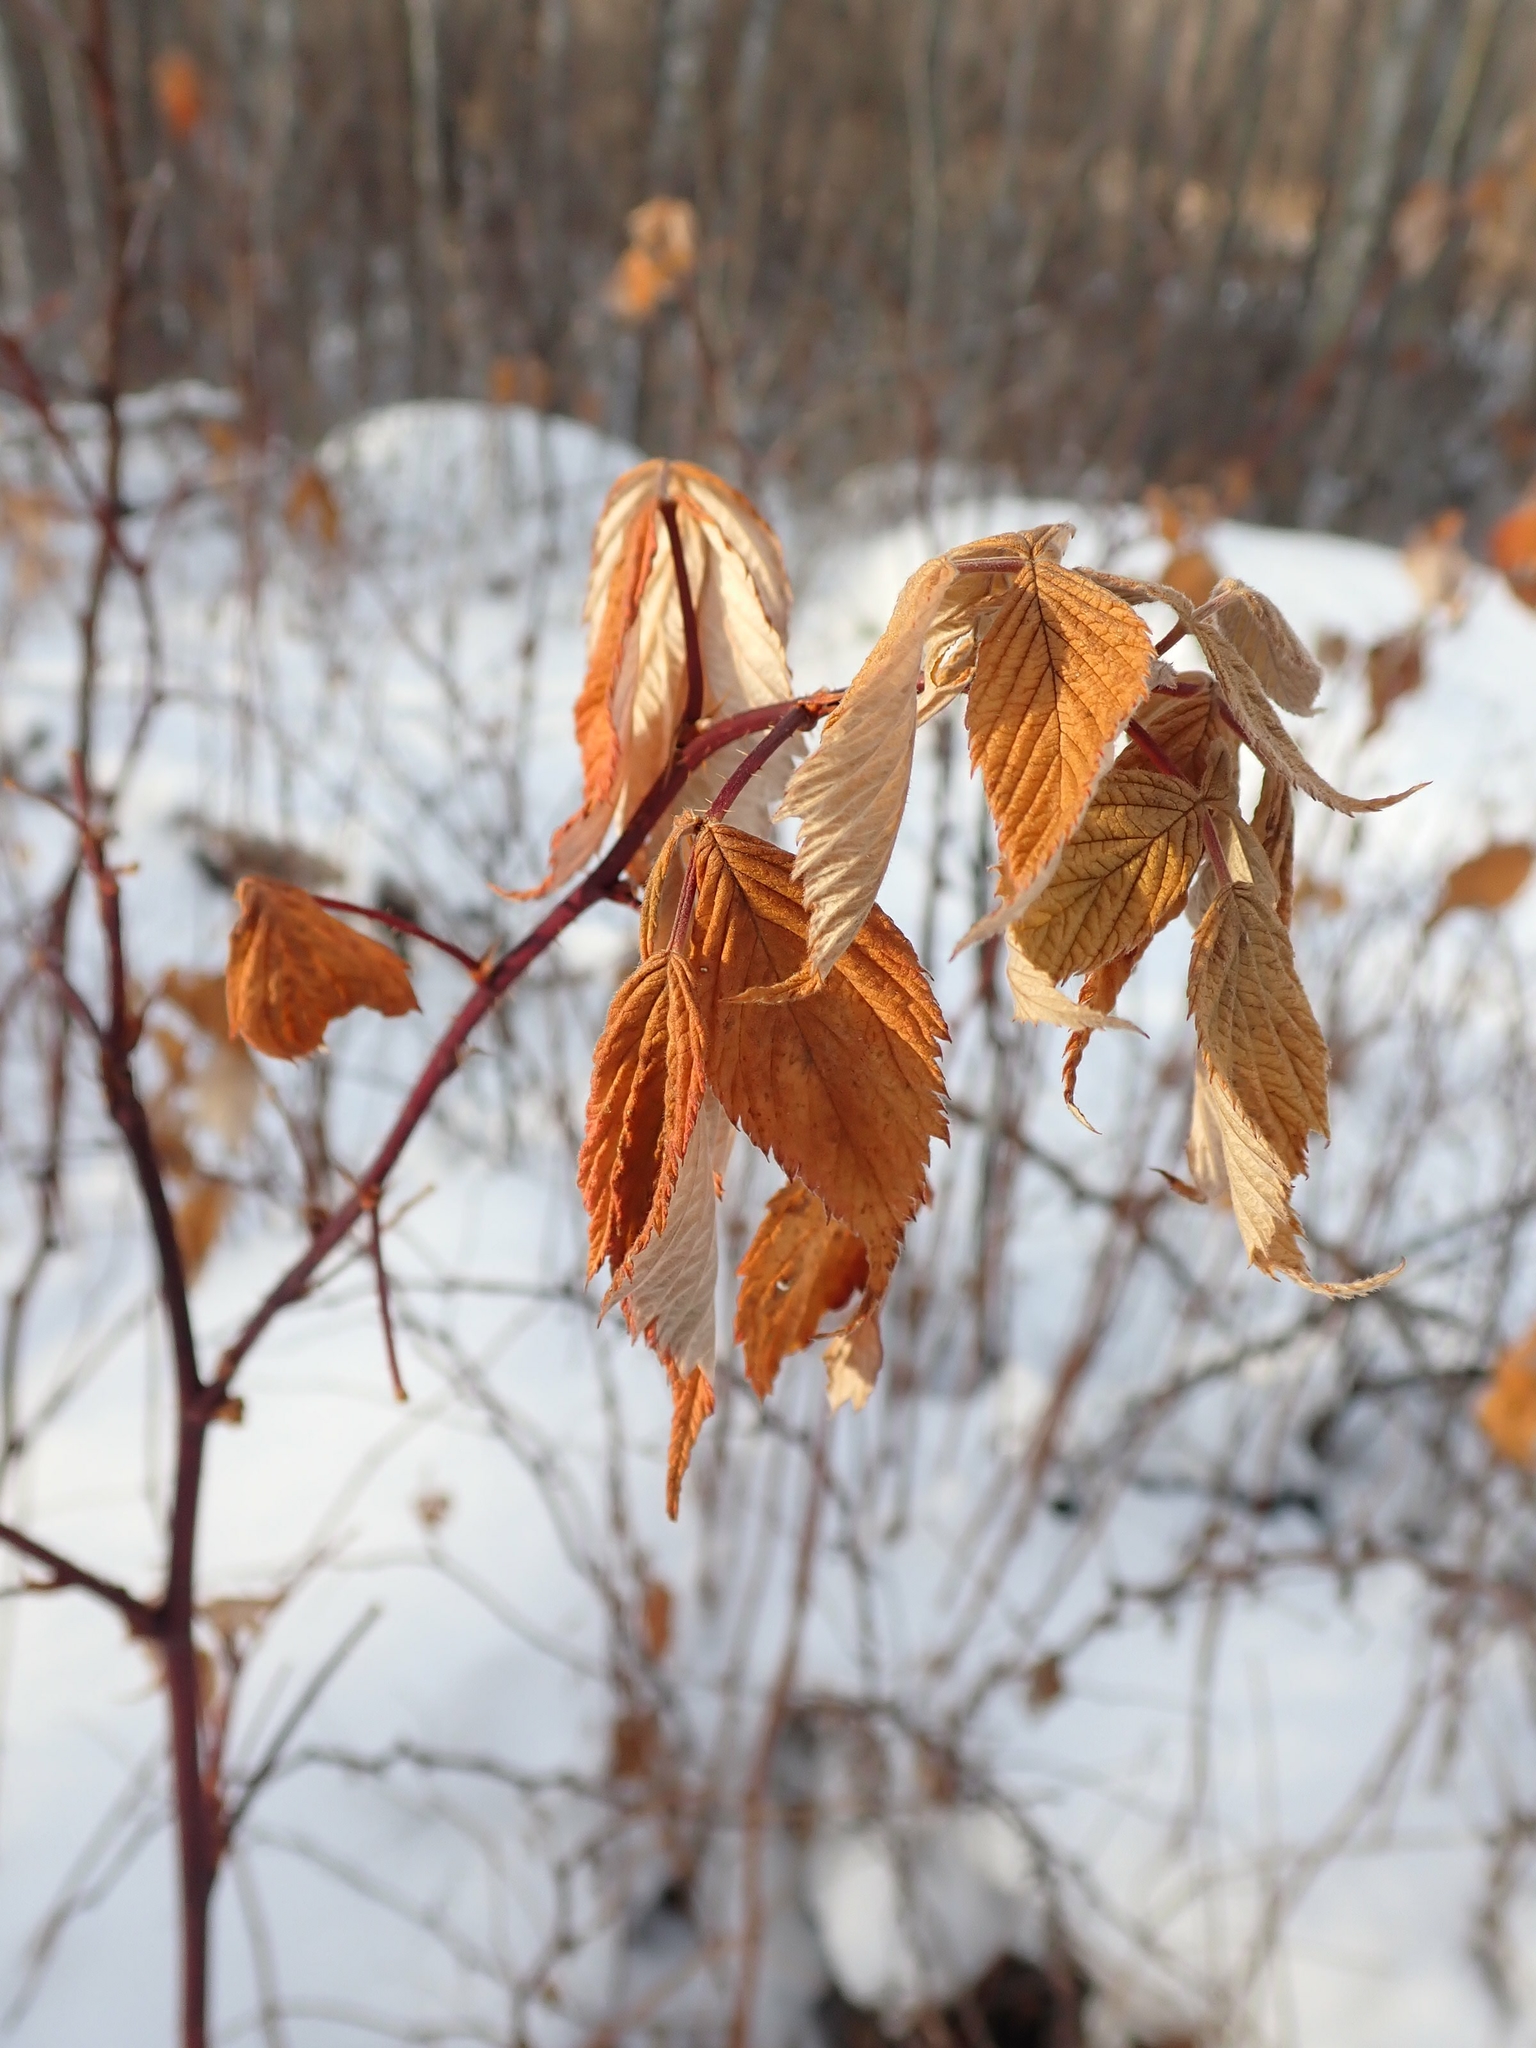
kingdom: Plantae
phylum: Tracheophyta
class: Magnoliopsida
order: Rosales
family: Rosaceae
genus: Rubus
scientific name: Rubus idaeus
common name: Raspberry
